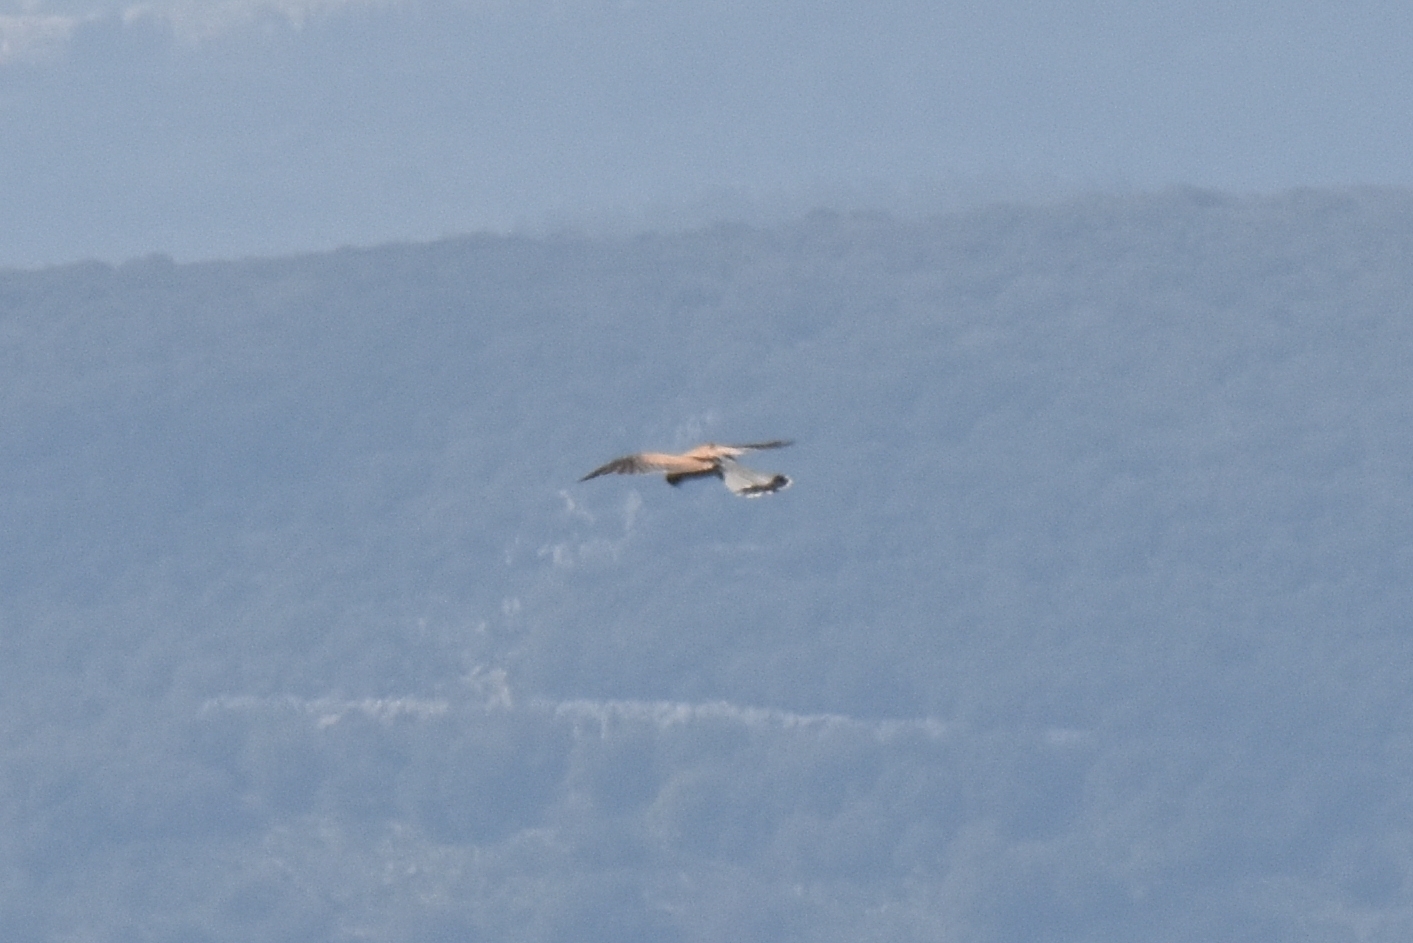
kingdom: Animalia
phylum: Chordata
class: Aves
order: Falconiformes
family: Falconidae
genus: Falco
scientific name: Falco tinnunculus
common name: Common kestrel
